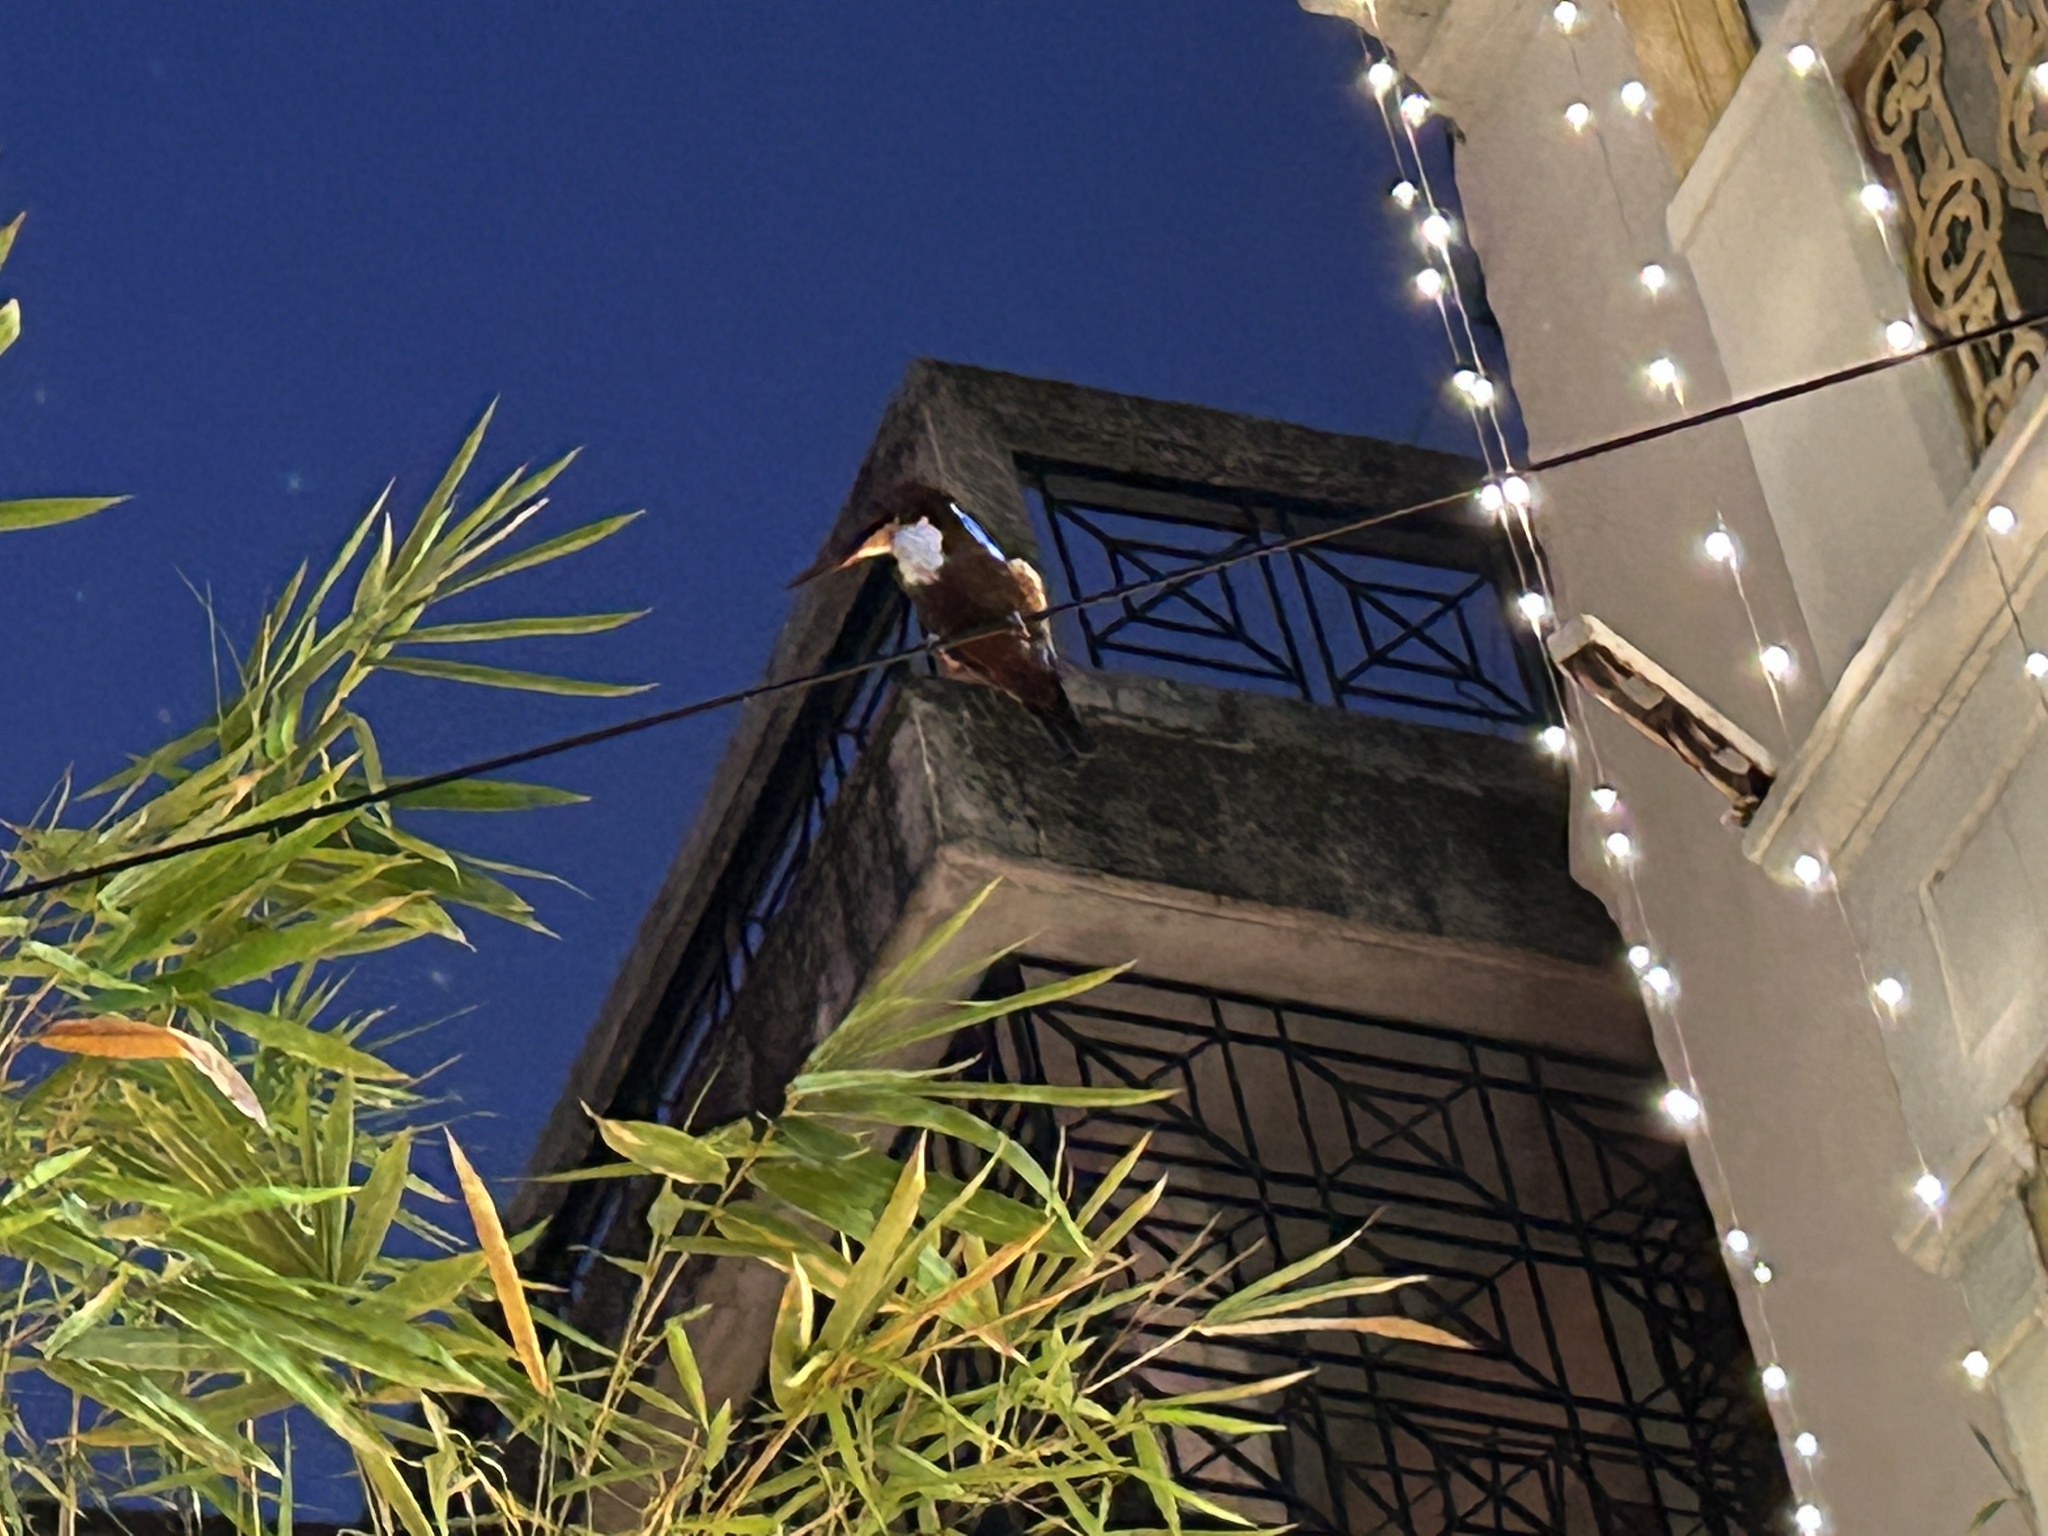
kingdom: Animalia
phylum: Chordata
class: Aves
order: Coraciiformes
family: Alcedinidae
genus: Halcyon
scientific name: Halcyon smyrnensis
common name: White-throated kingfisher
